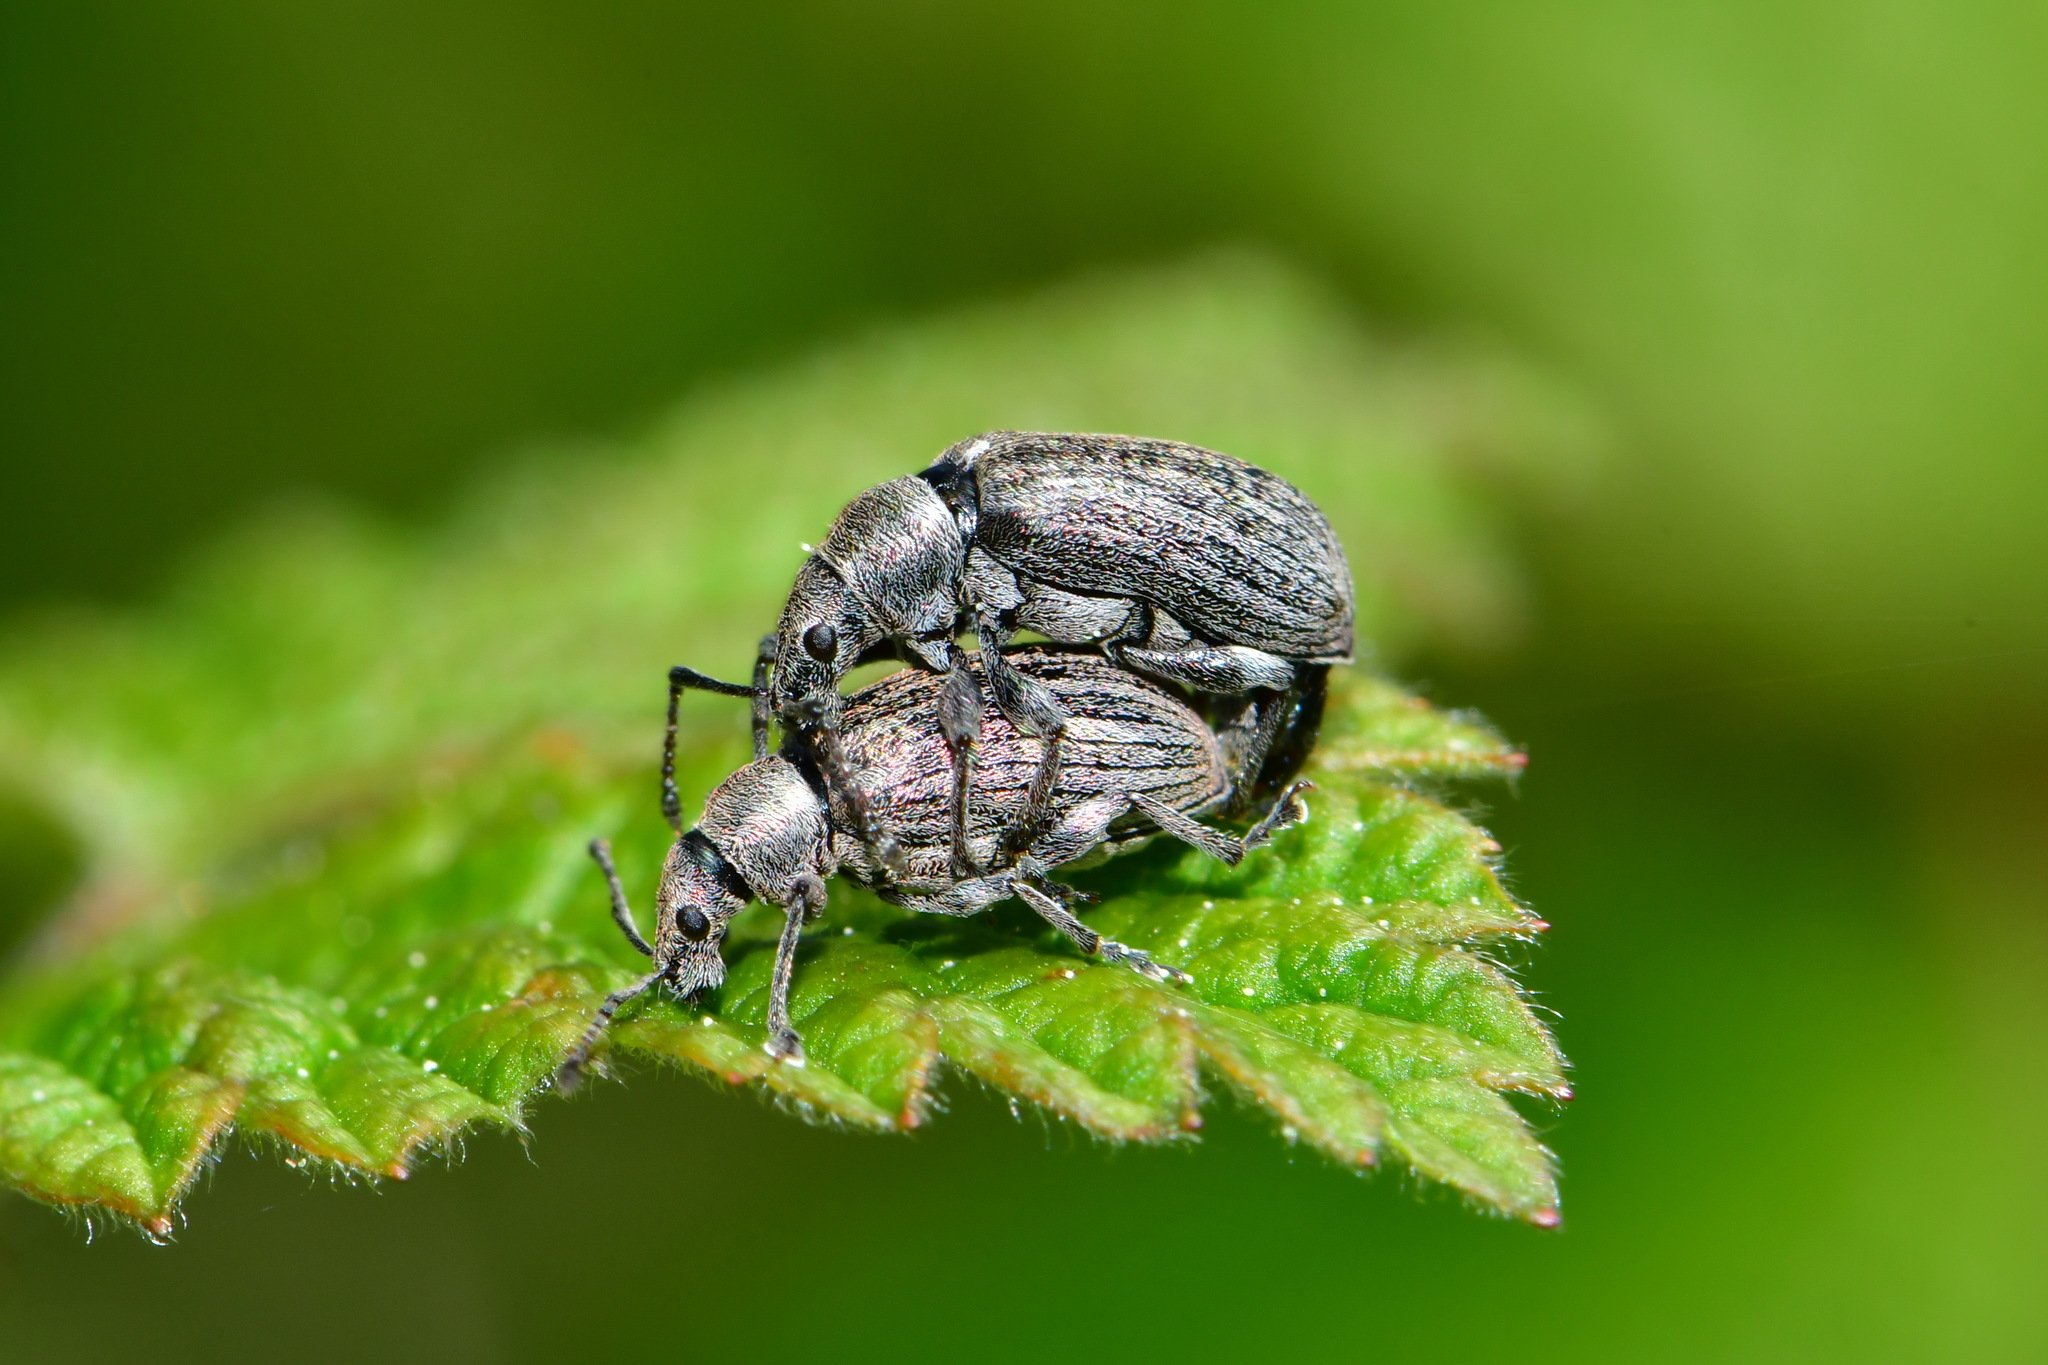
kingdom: Animalia
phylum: Arthropoda
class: Insecta
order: Coleoptera
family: Curculionidae
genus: Phyllobius
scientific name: Phyllobius pyri
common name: Common leaf weevil
